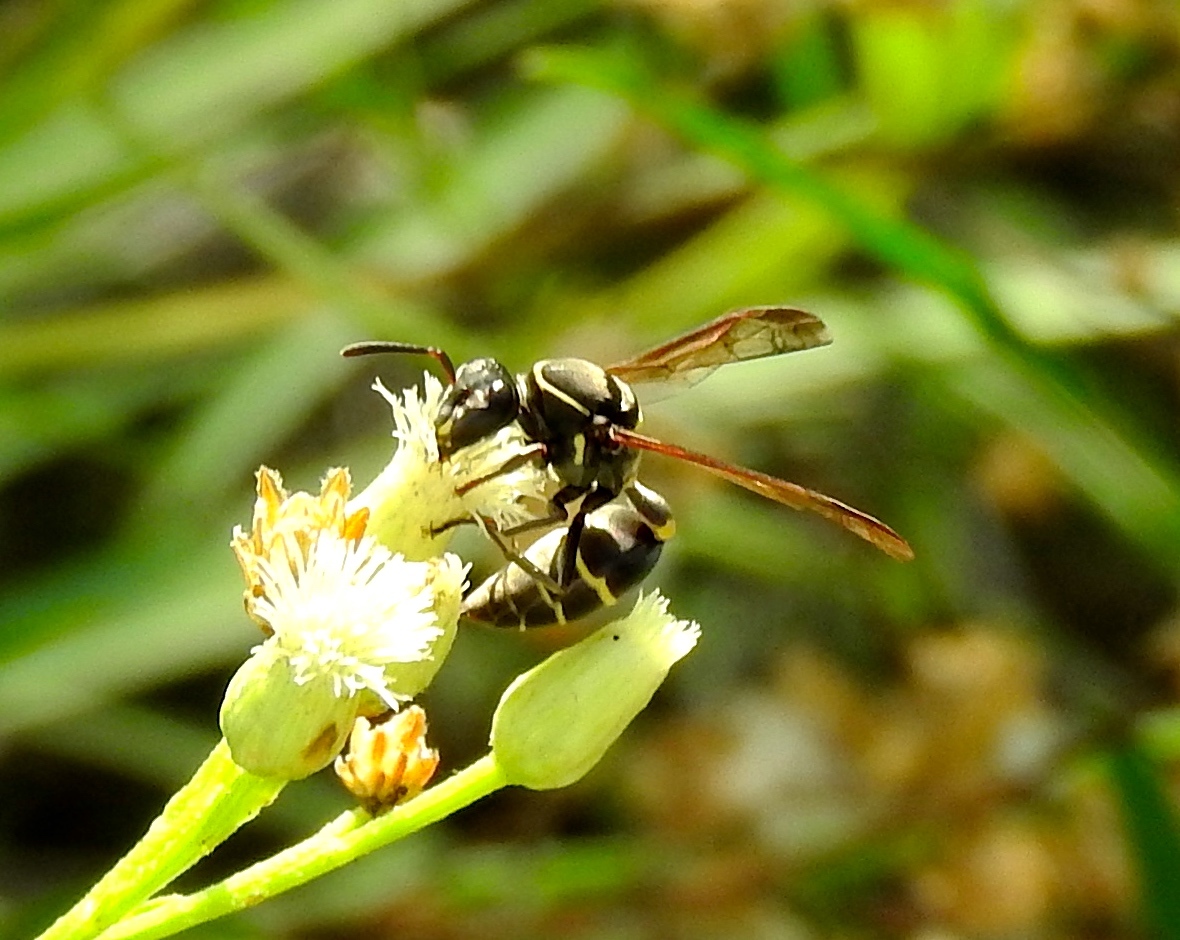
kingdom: Animalia
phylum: Arthropoda
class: Insecta
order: Hymenoptera
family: Eumenidae
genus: Polybia
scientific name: Polybia
